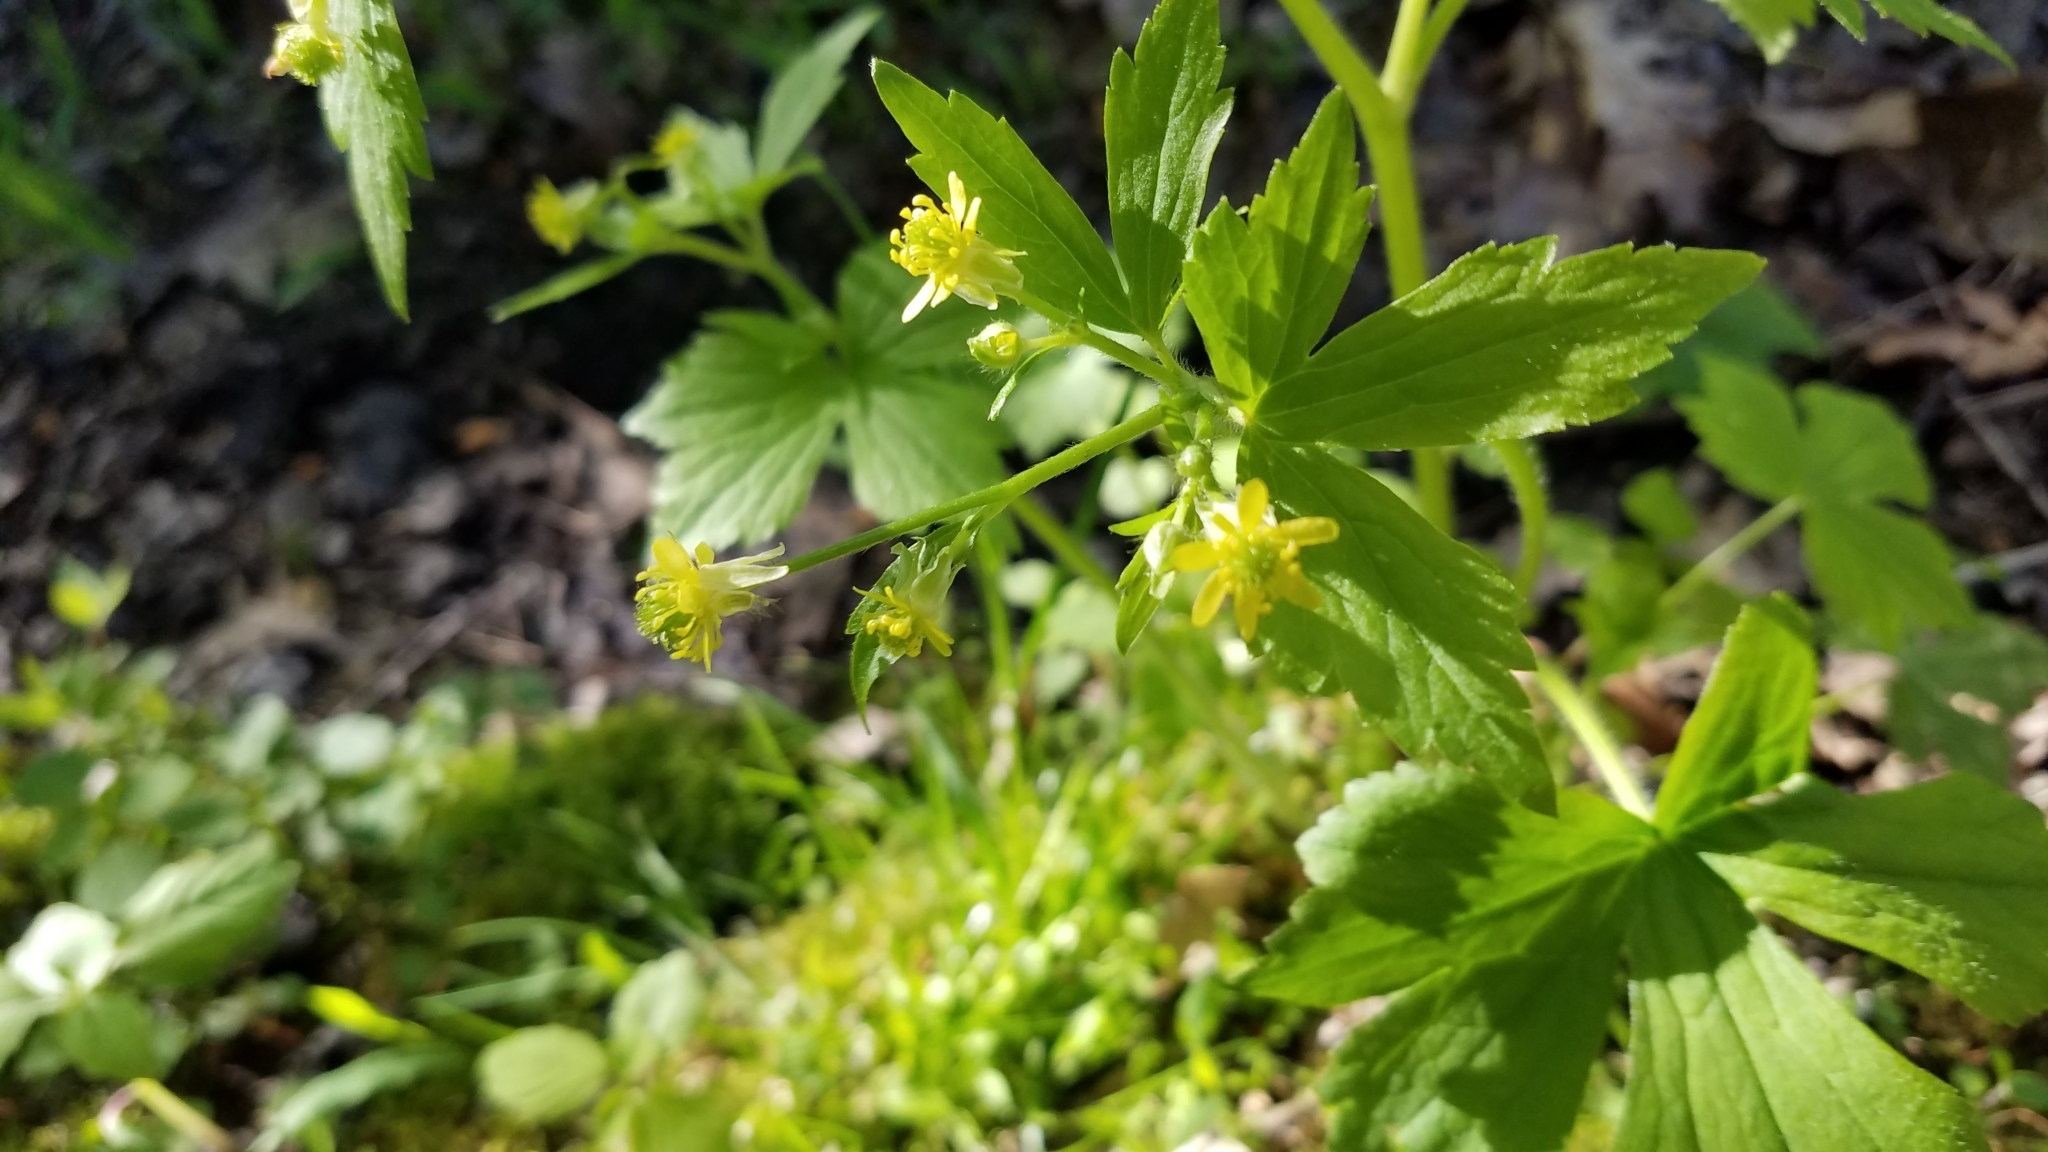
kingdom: Plantae
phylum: Tracheophyta
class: Magnoliopsida
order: Ranunculales
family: Ranunculaceae
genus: Ranunculus
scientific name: Ranunculus recurvatus
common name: Blisterwort
